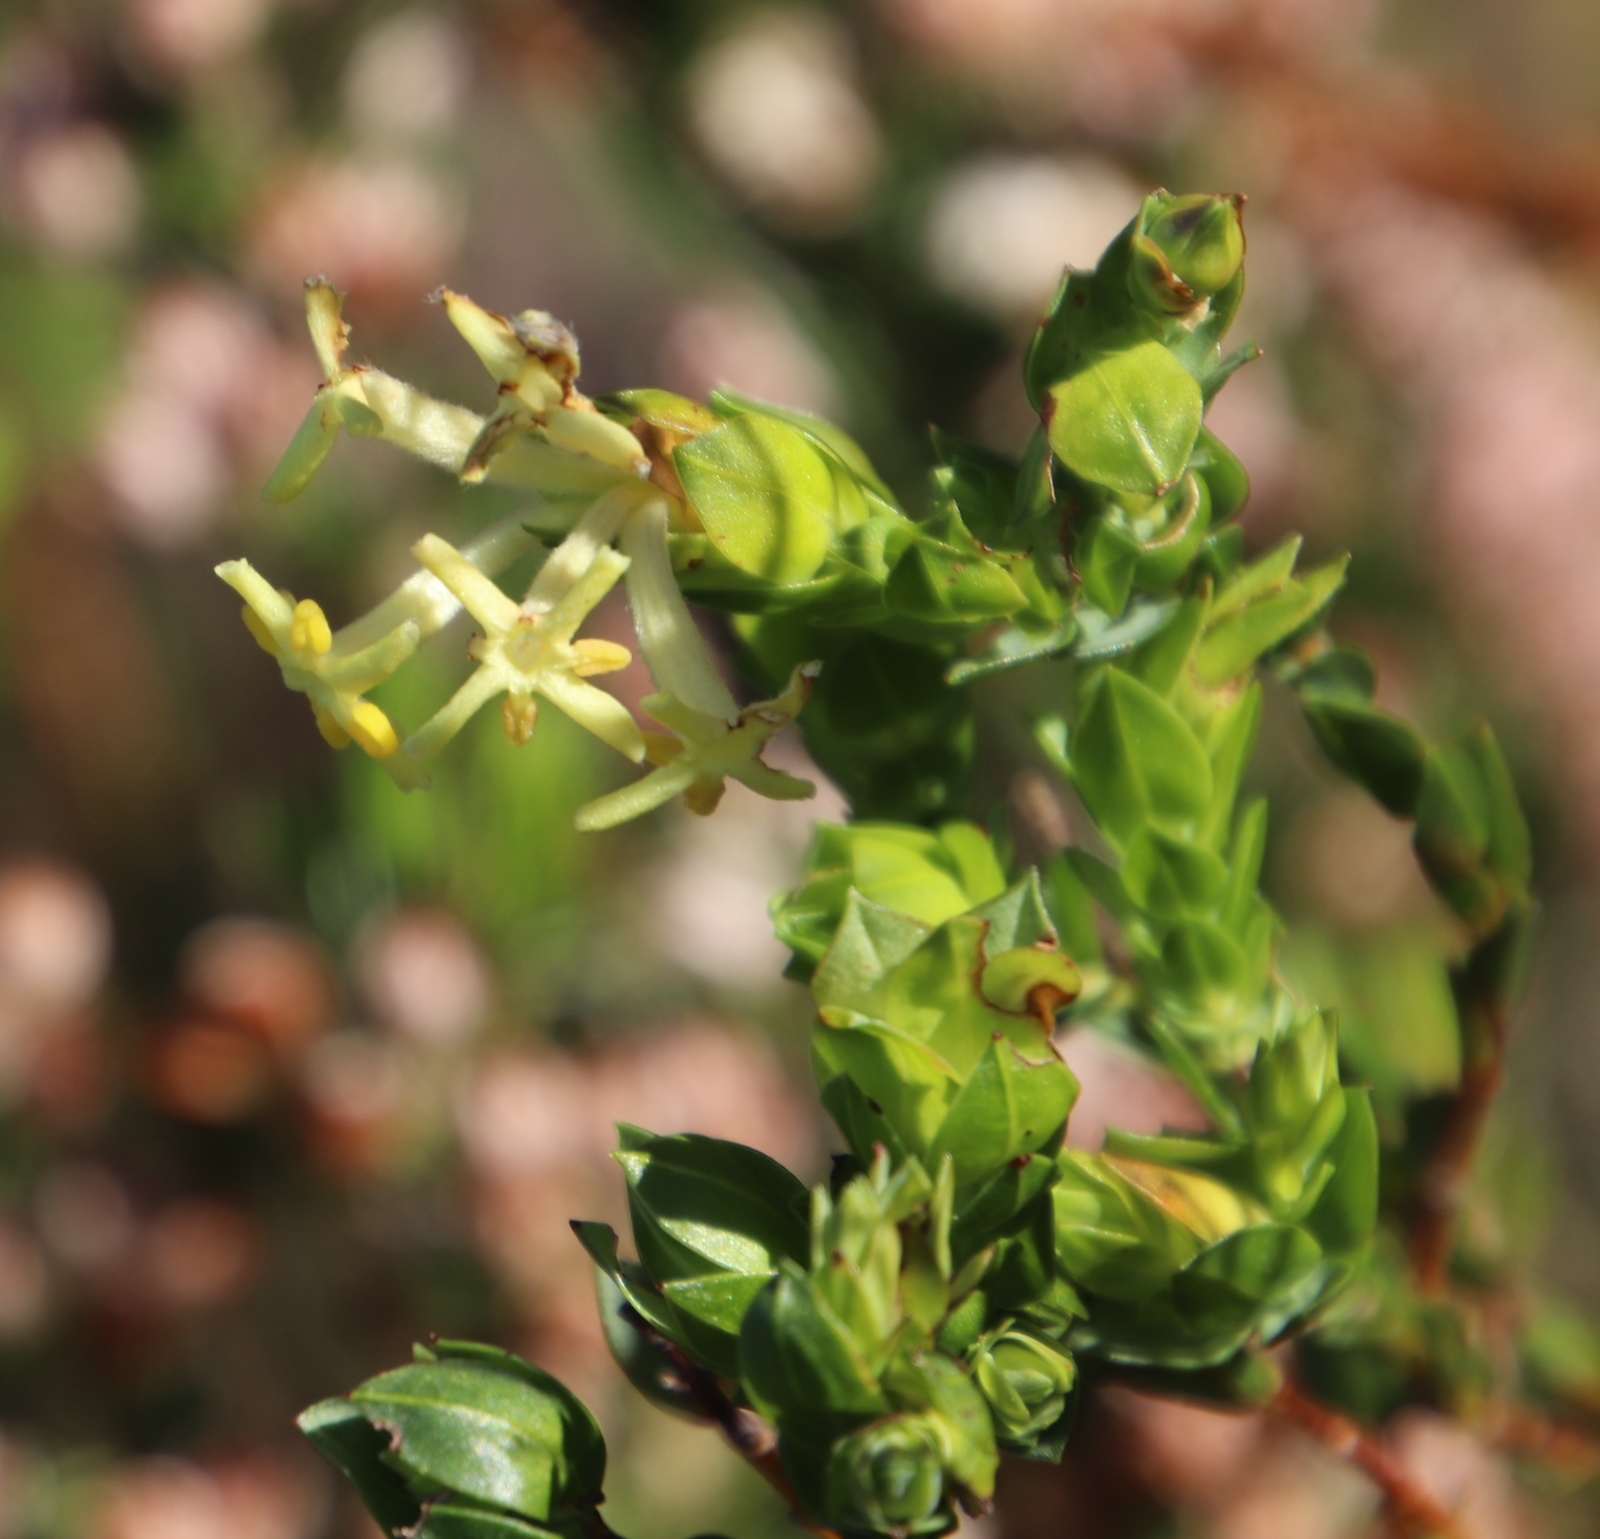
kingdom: Plantae
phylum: Tracheophyta
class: Magnoliopsida
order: Malvales
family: Thymelaeaceae
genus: Gnidia
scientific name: Gnidia oppositifolia
